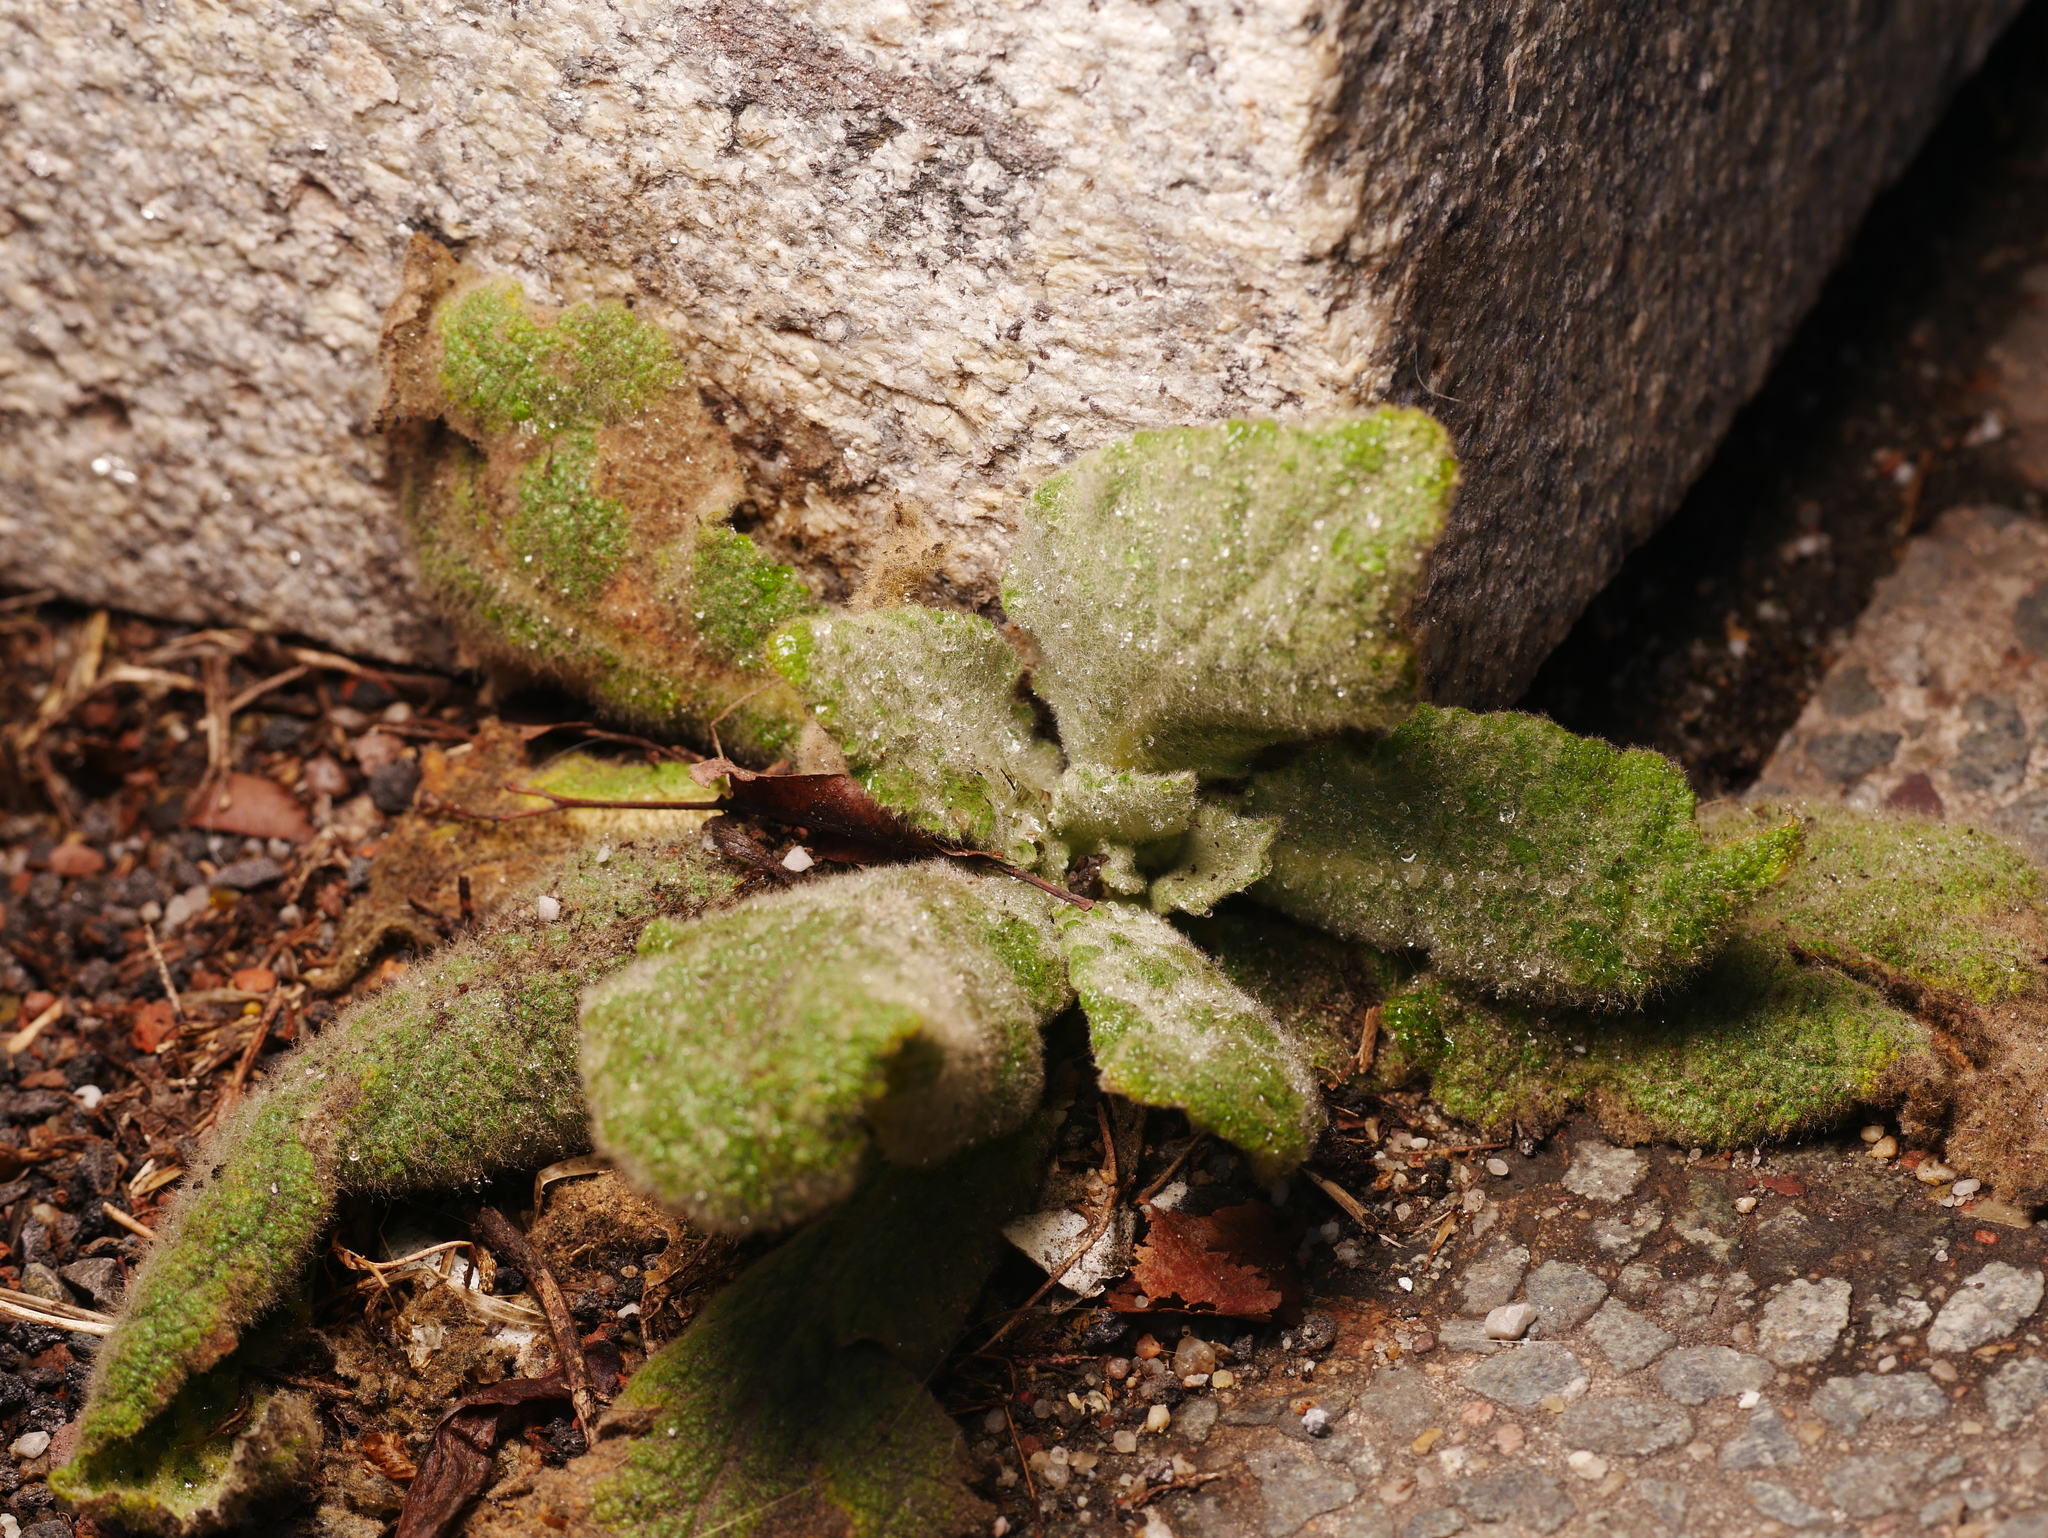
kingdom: Plantae
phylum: Tracheophyta
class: Magnoliopsida
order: Lamiales
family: Scrophulariaceae
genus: Verbascum
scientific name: Verbascum thapsus
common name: Common mullein
